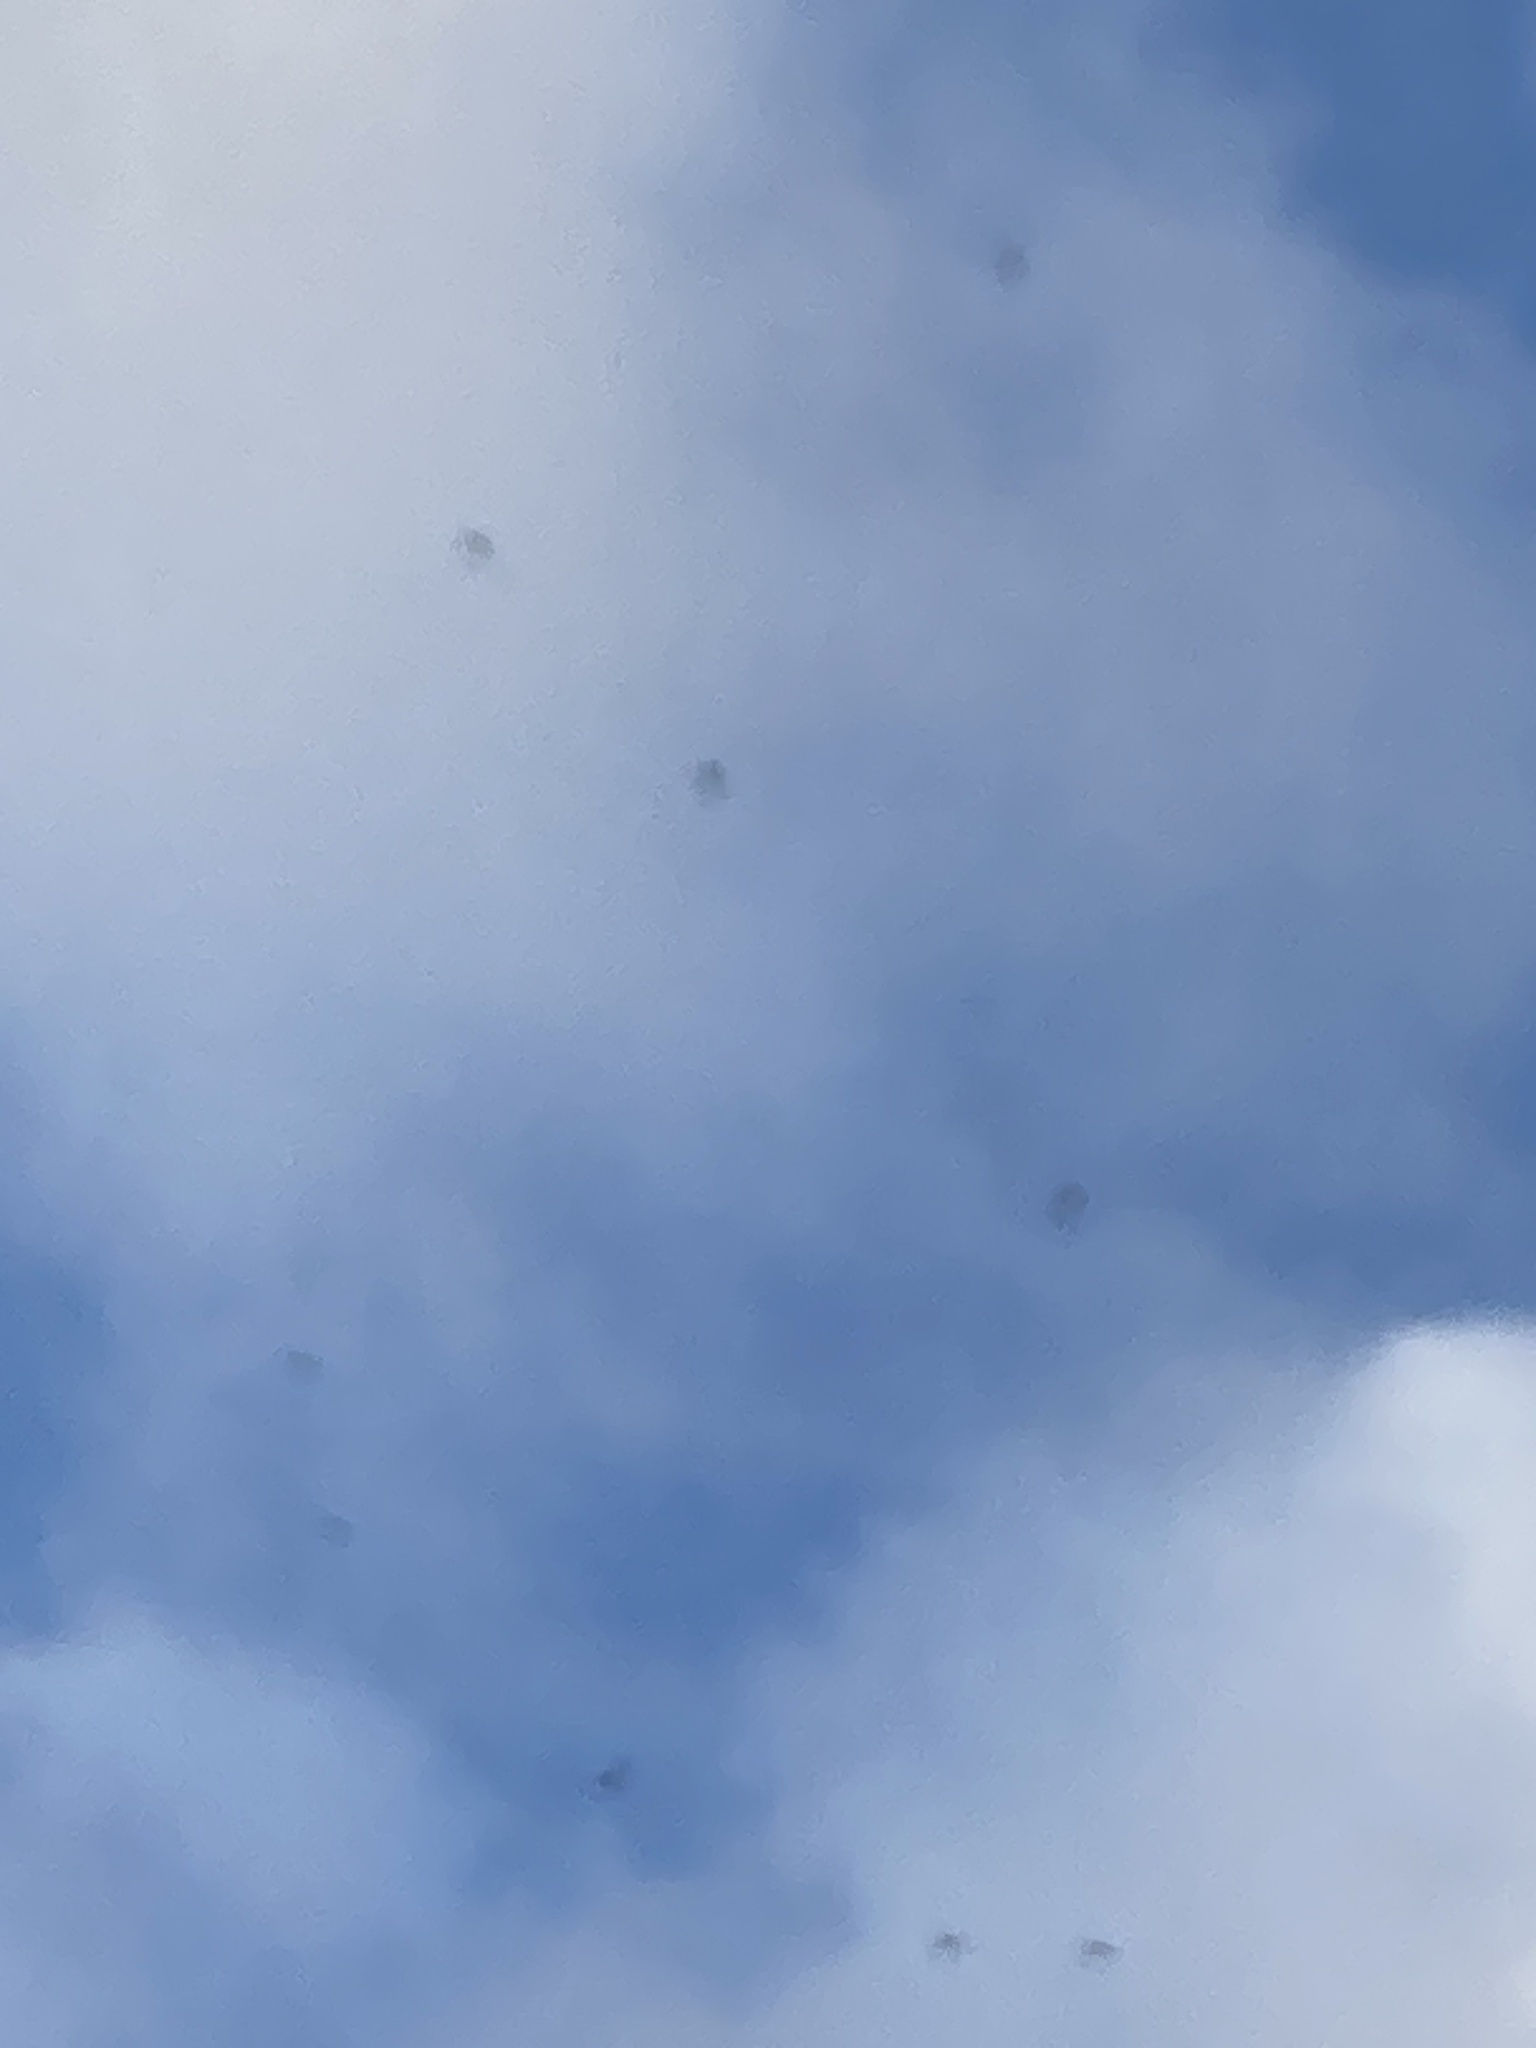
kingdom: Animalia
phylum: Chordata
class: Aves
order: Apodiformes
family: Apodidae
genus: Apus
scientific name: Apus apus
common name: Common swift
